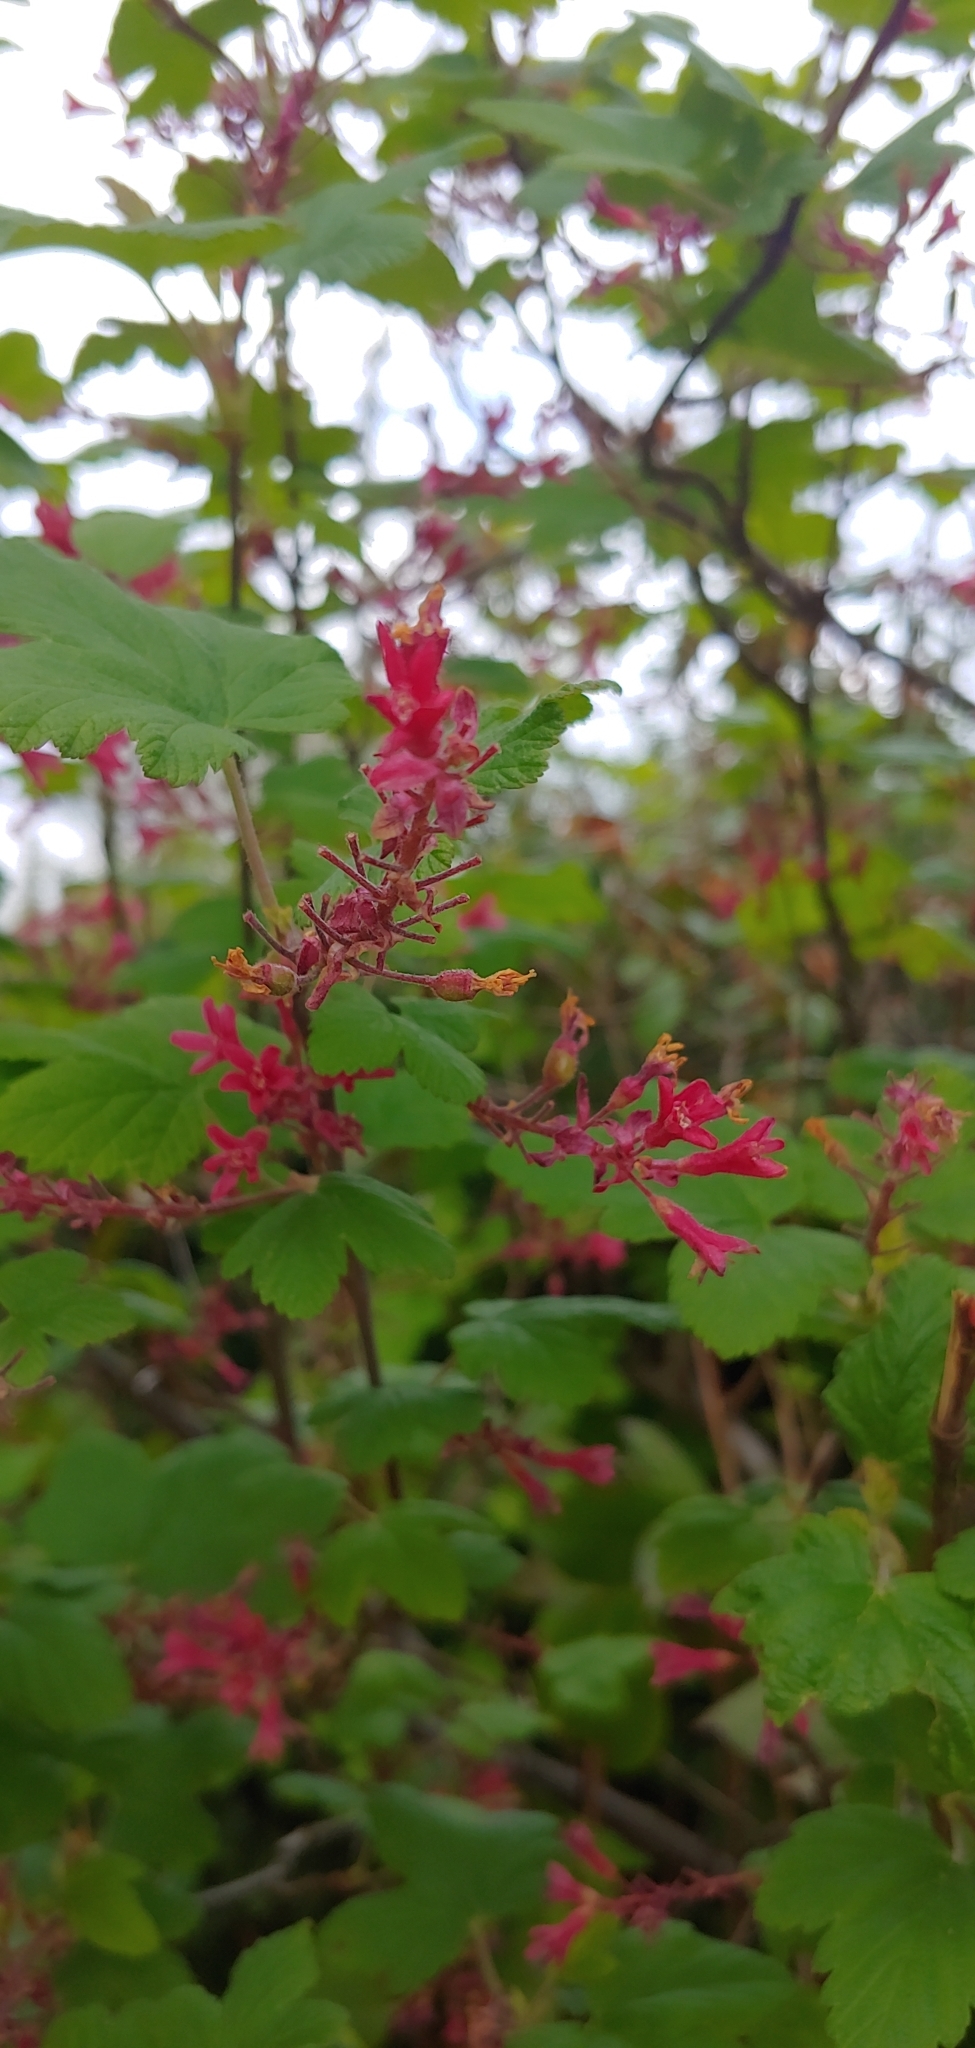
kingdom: Plantae
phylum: Tracheophyta
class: Magnoliopsida
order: Saxifragales
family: Grossulariaceae
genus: Ribes
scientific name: Ribes sanguineum
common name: Flowering currant
